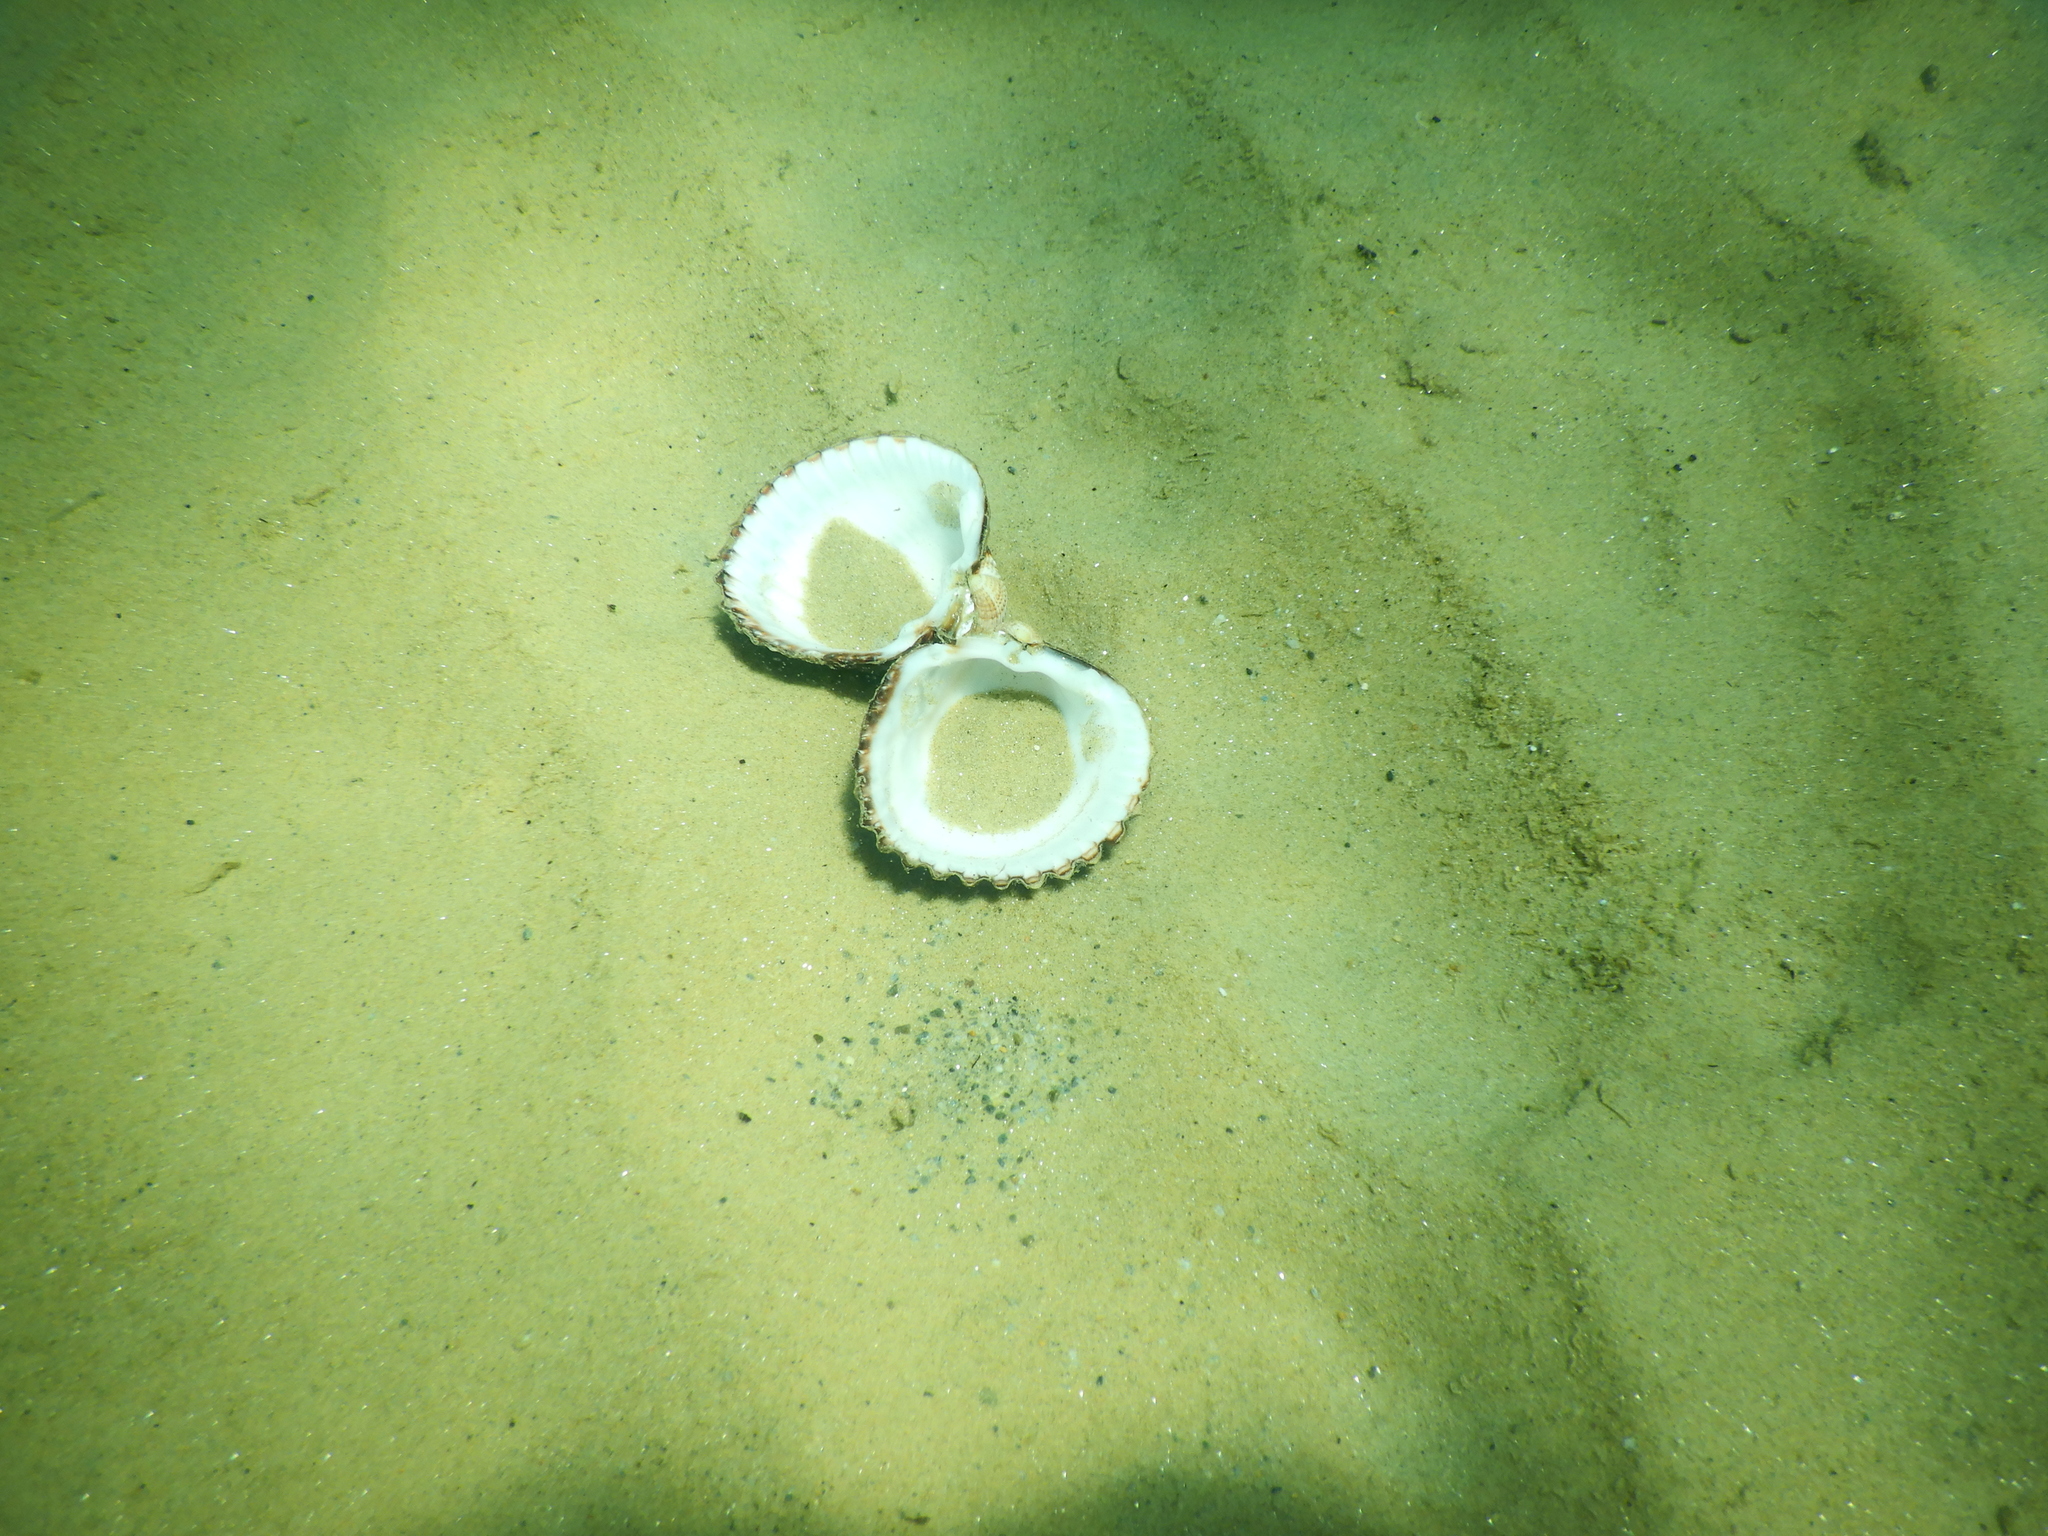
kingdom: Animalia
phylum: Mollusca
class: Bivalvia
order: Cardiida
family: Cardiidae
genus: Acanthocardia
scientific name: Acanthocardia tuberculata
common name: Rough cockle
